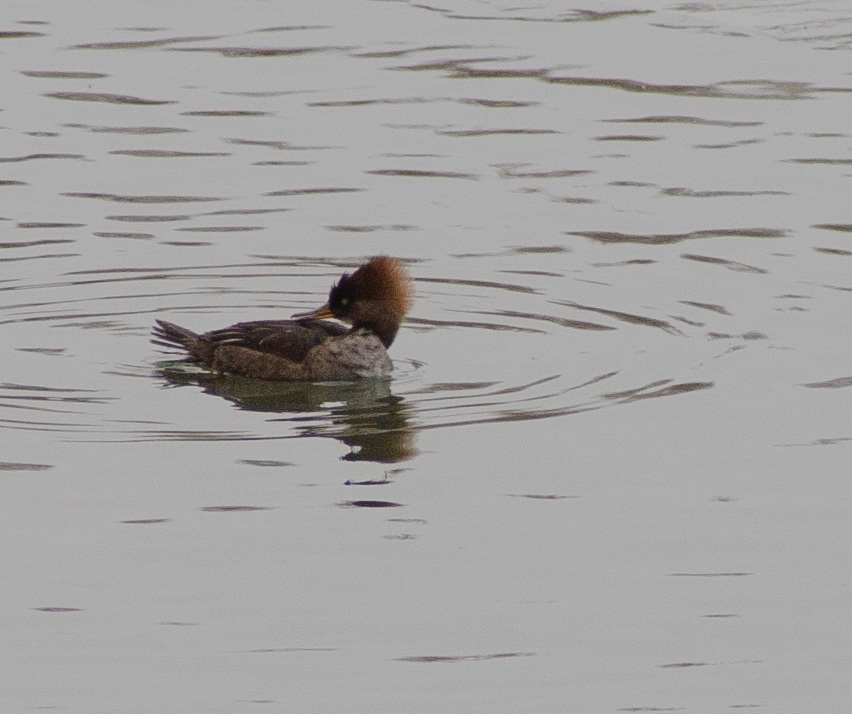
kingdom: Animalia
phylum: Chordata
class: Aves
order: Anseriformes
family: Anatidae
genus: Lophodytes
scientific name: Lophodytes cucullatus
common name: Hooded merganser
